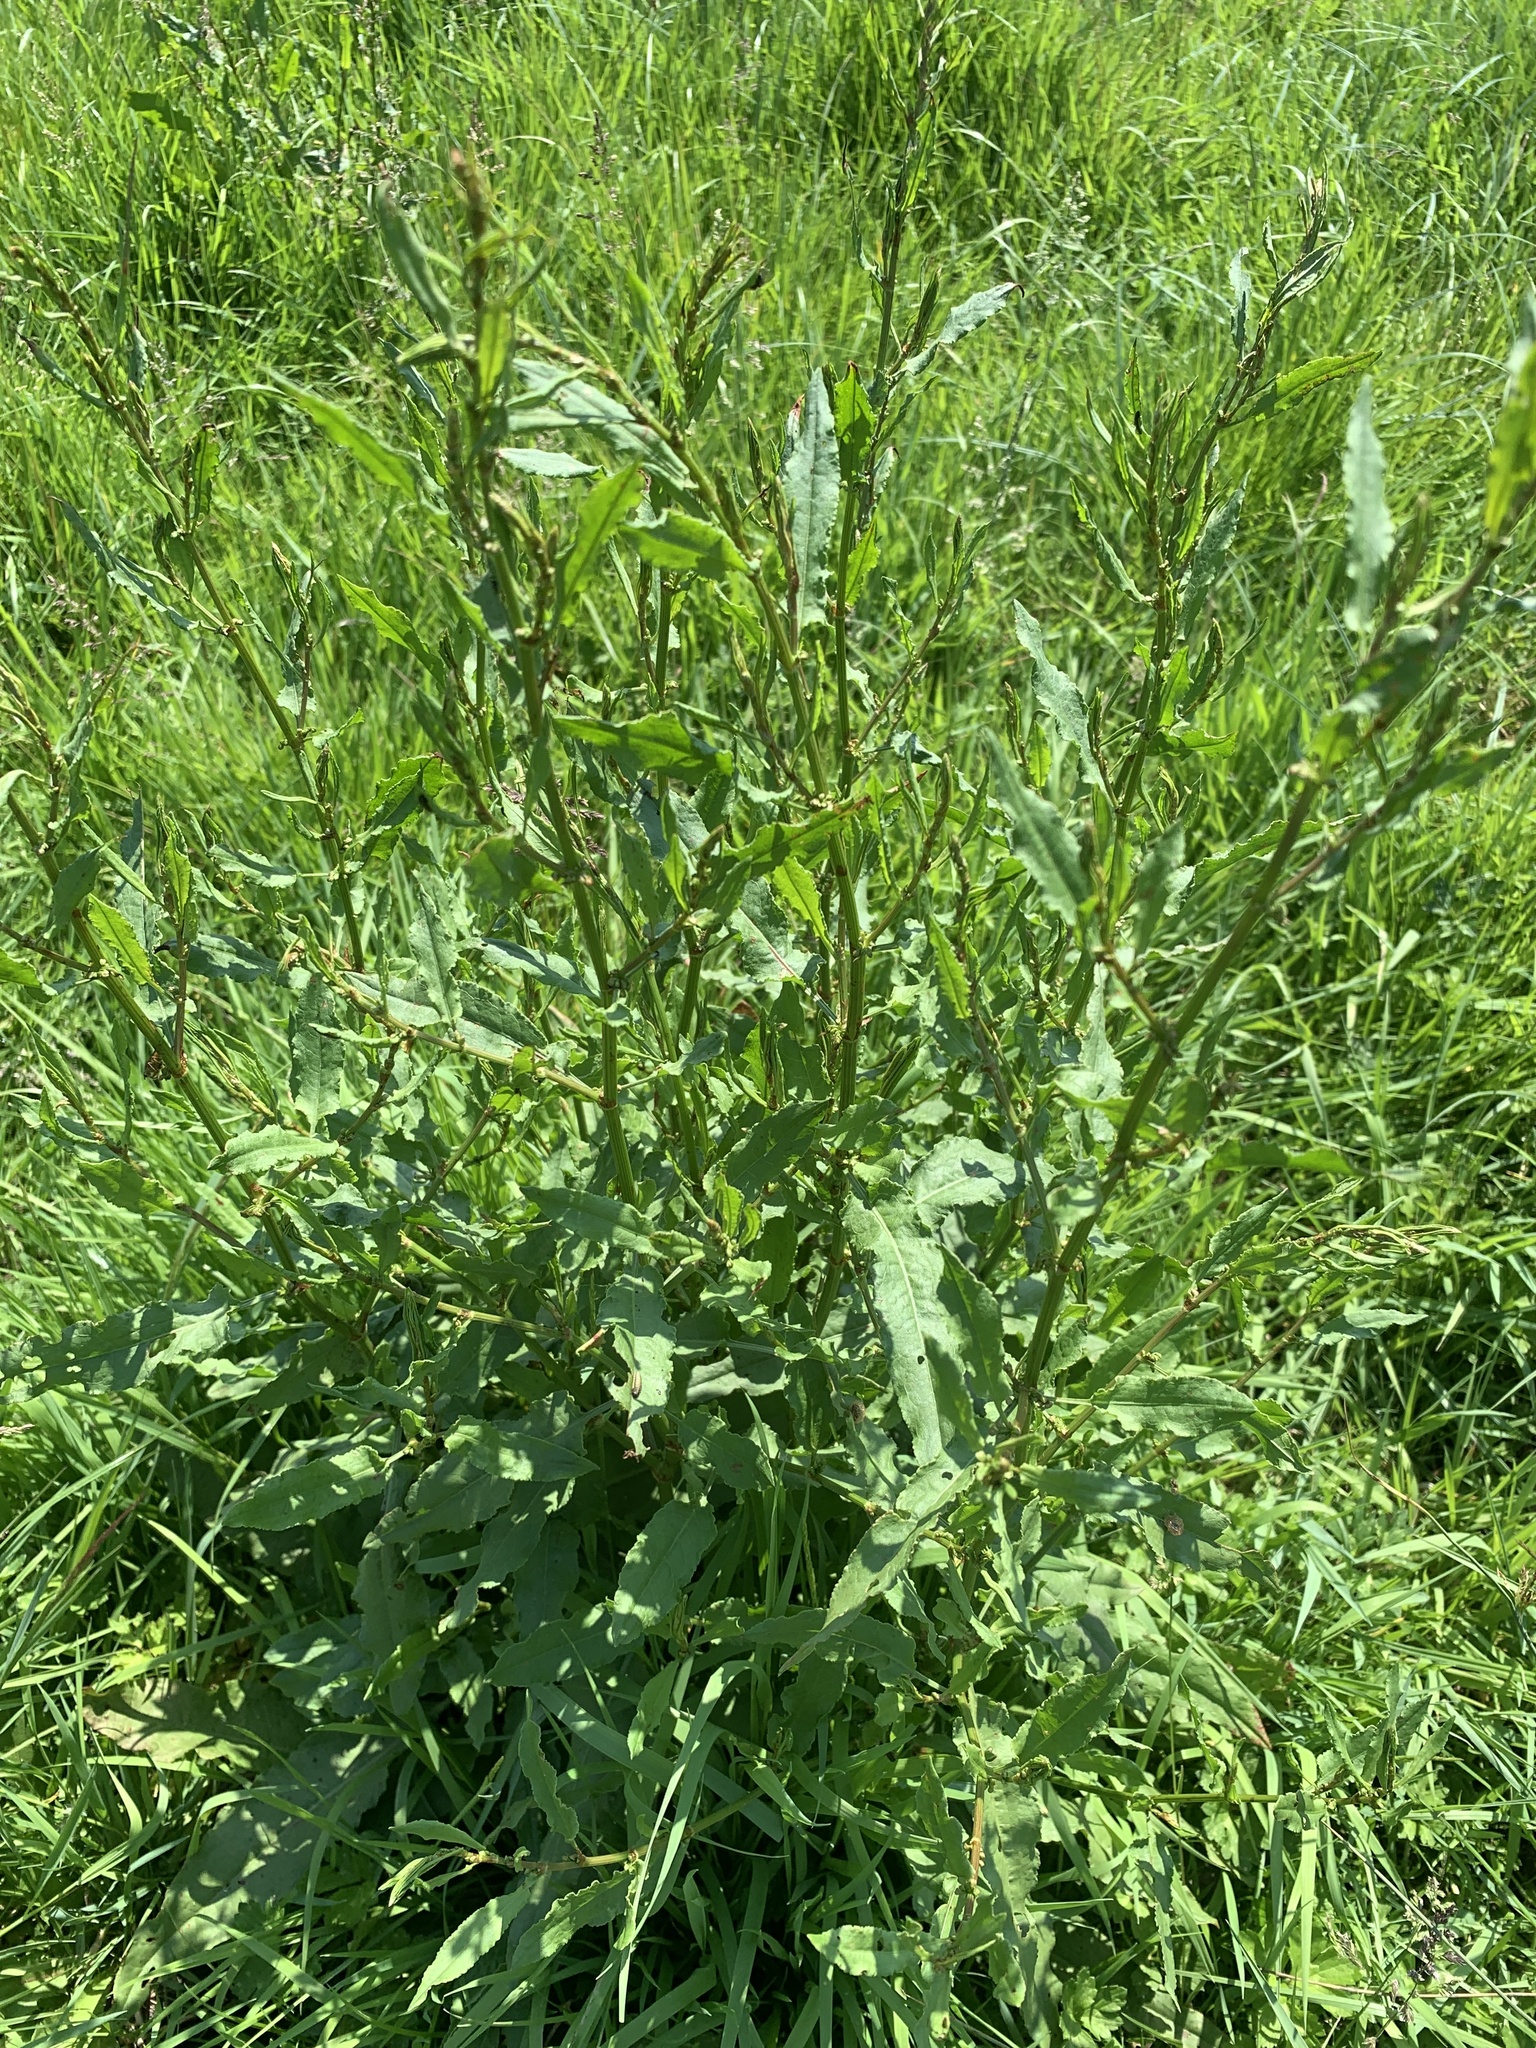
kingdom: Plantae
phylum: Tracheophyta
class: Magnoliopsida
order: Caryophyllales
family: Polygonaceae
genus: Rumex
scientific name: Rumex conglomeratus
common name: Clustered dock
